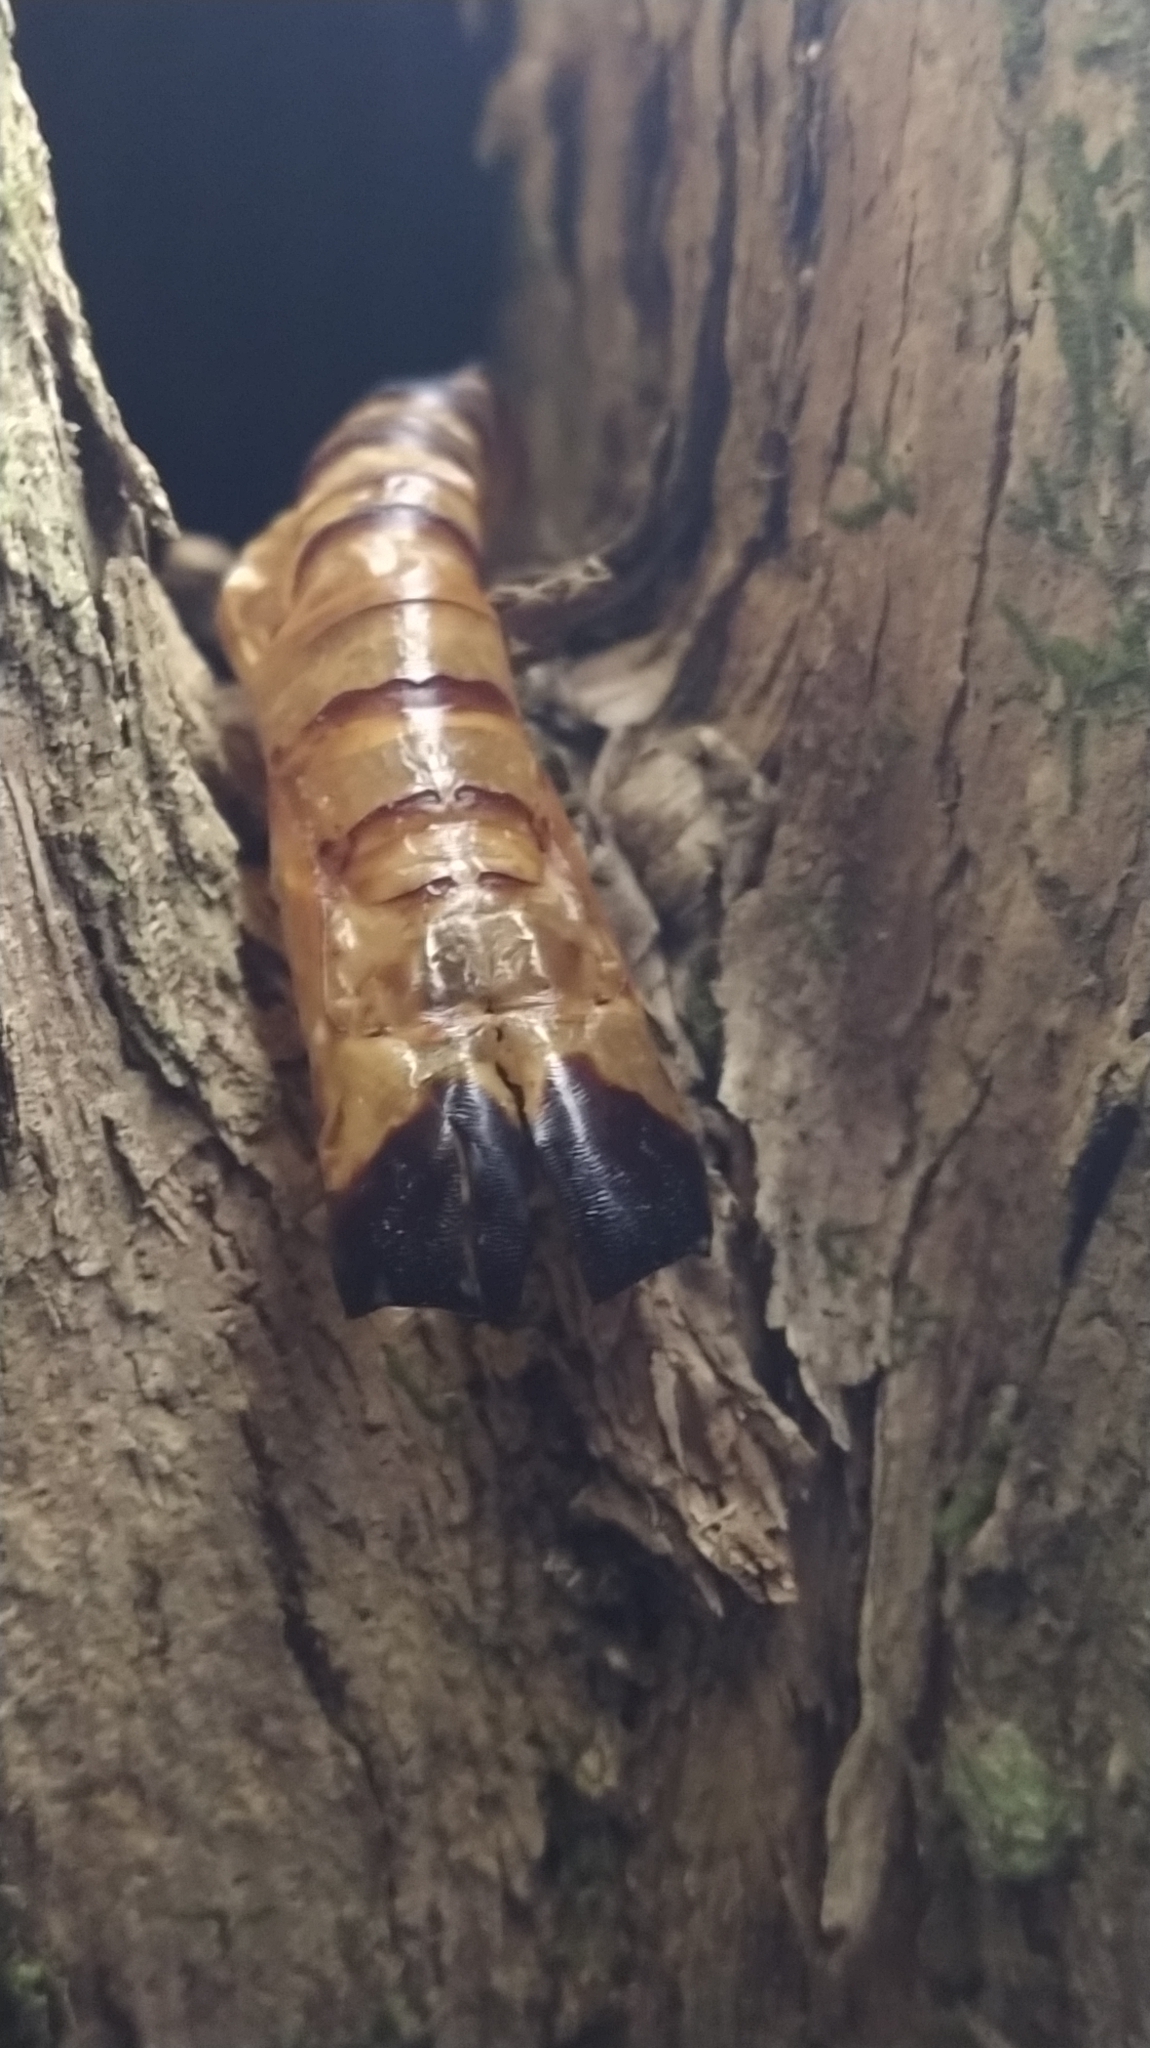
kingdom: Animalia
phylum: Arthropoda
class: Insecta
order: Lepidoptera
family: Hepialidae
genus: Aenetus
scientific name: Aenetus virescens
